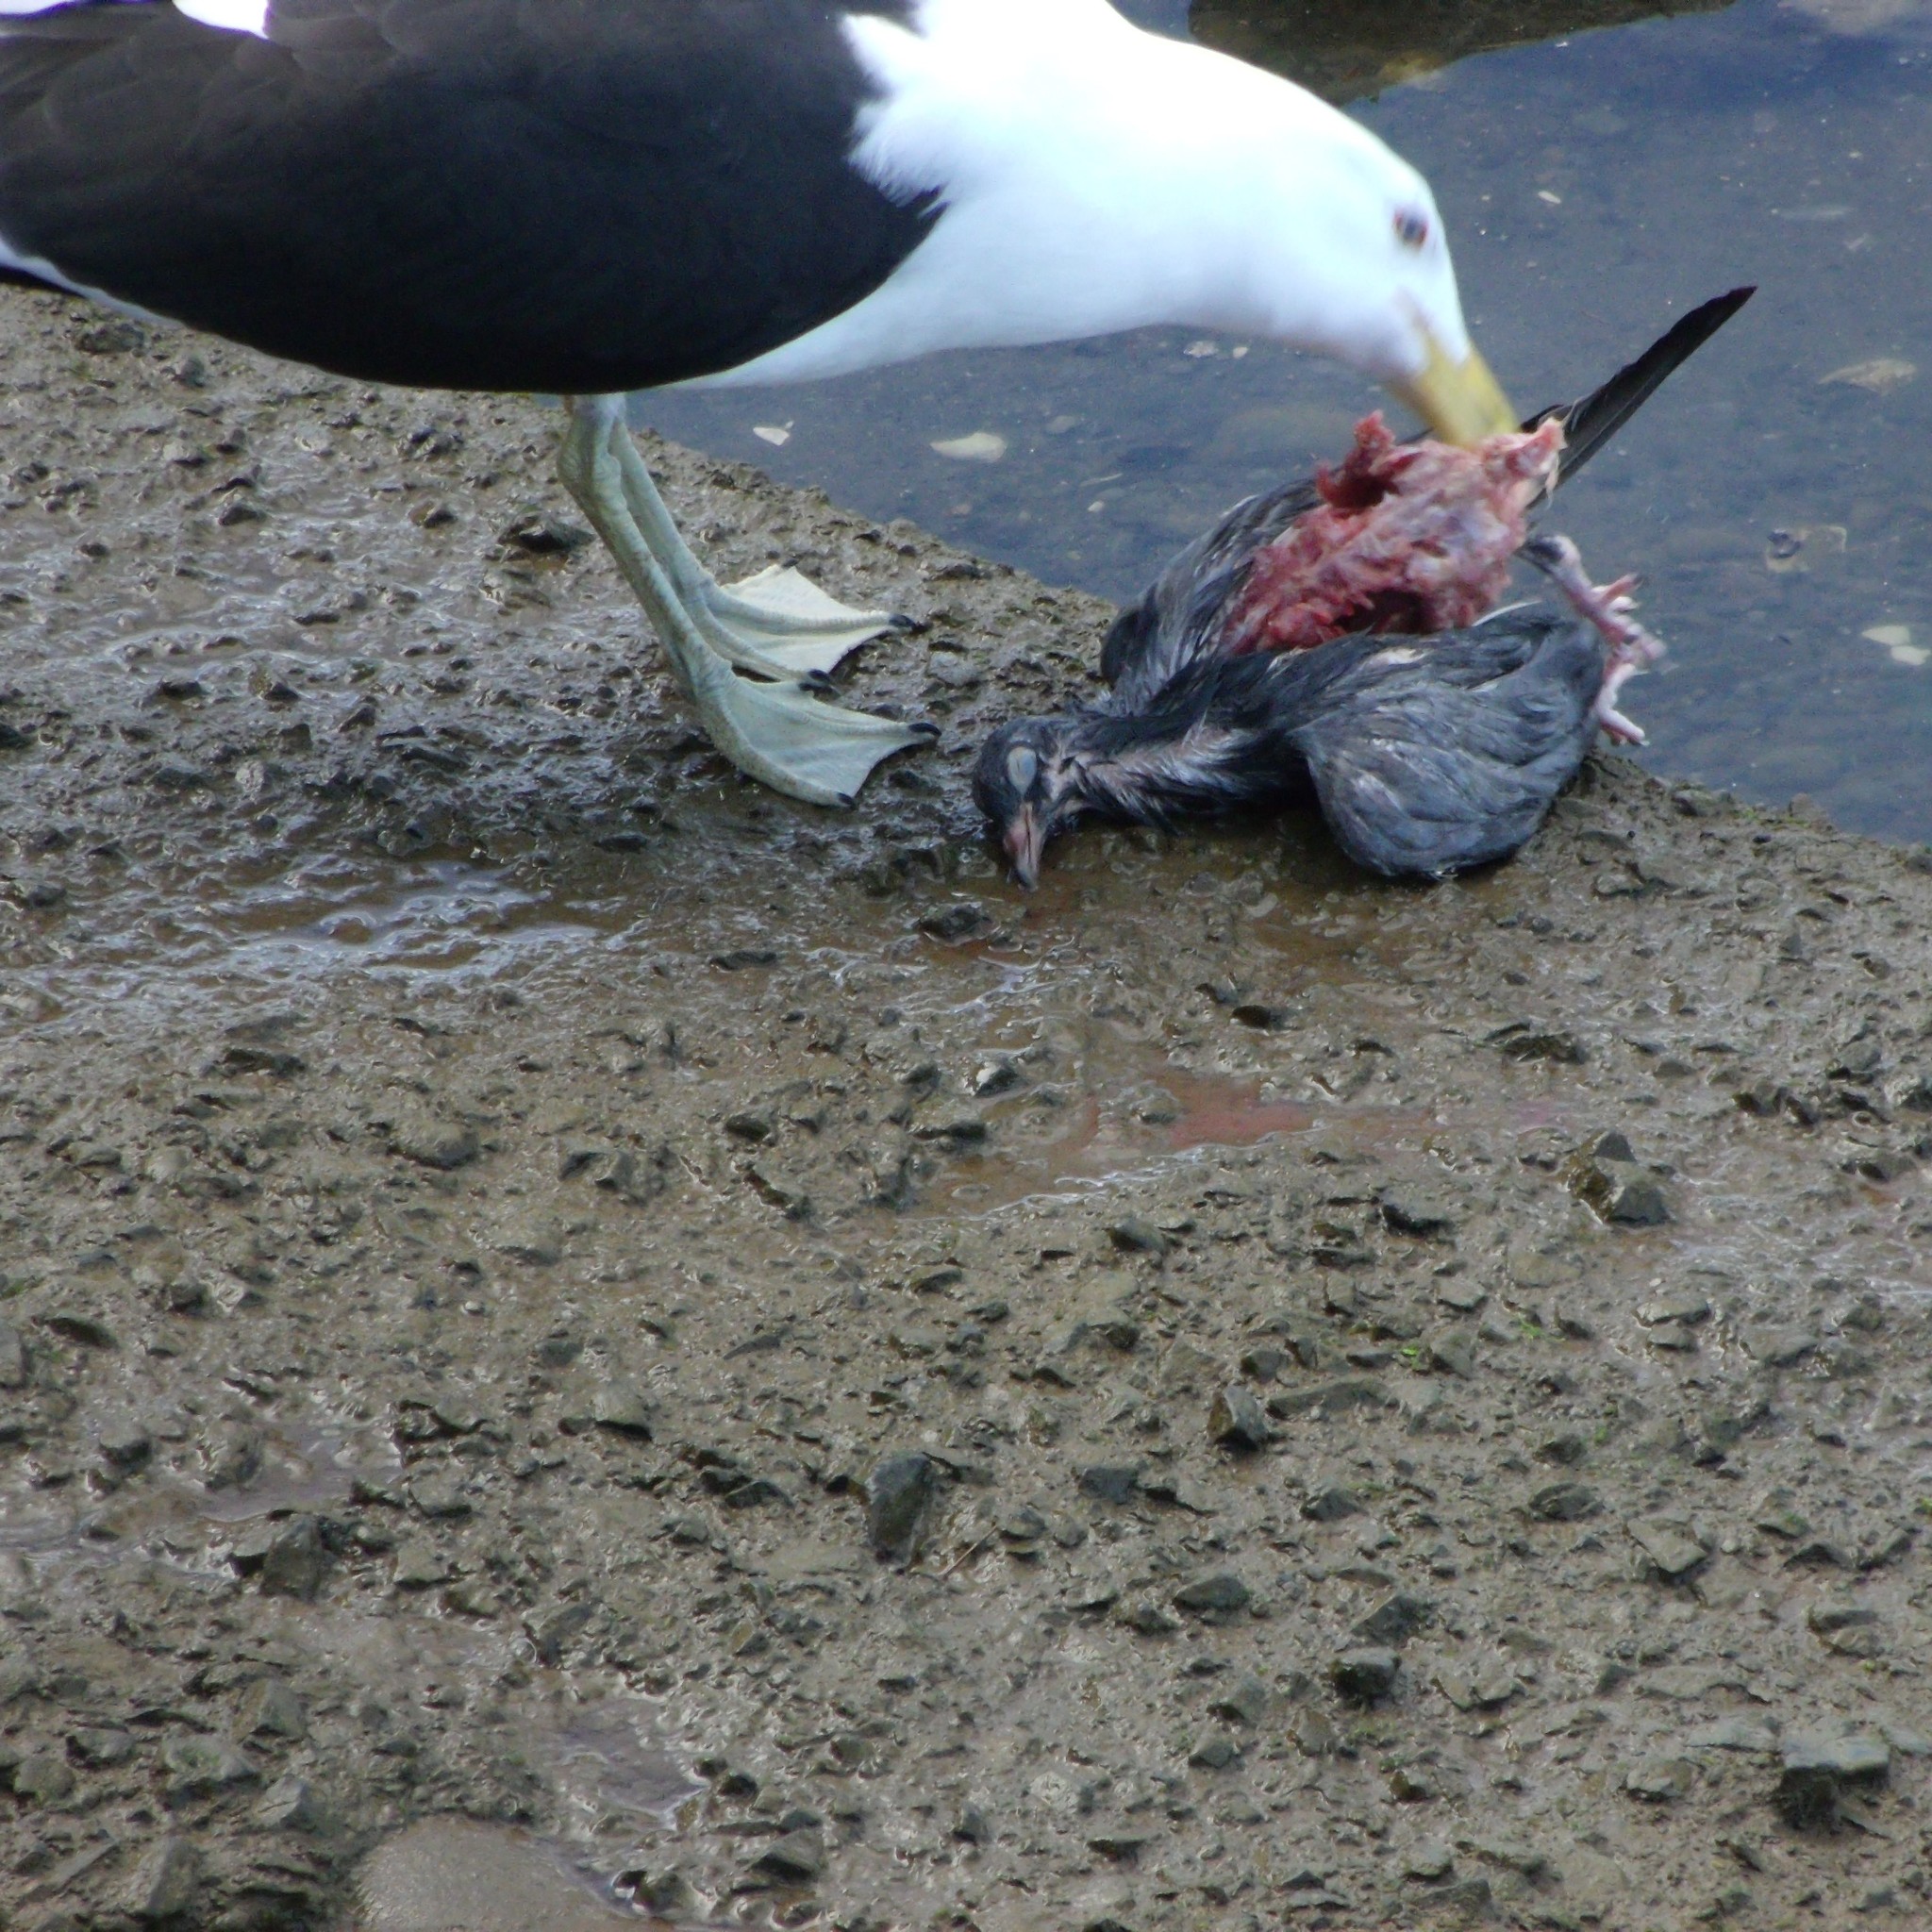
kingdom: Animalia
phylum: Chordata
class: Aves
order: Charadriiformes
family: Laridae
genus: Larus
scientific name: Larus dominicanus
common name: Kelp gull
